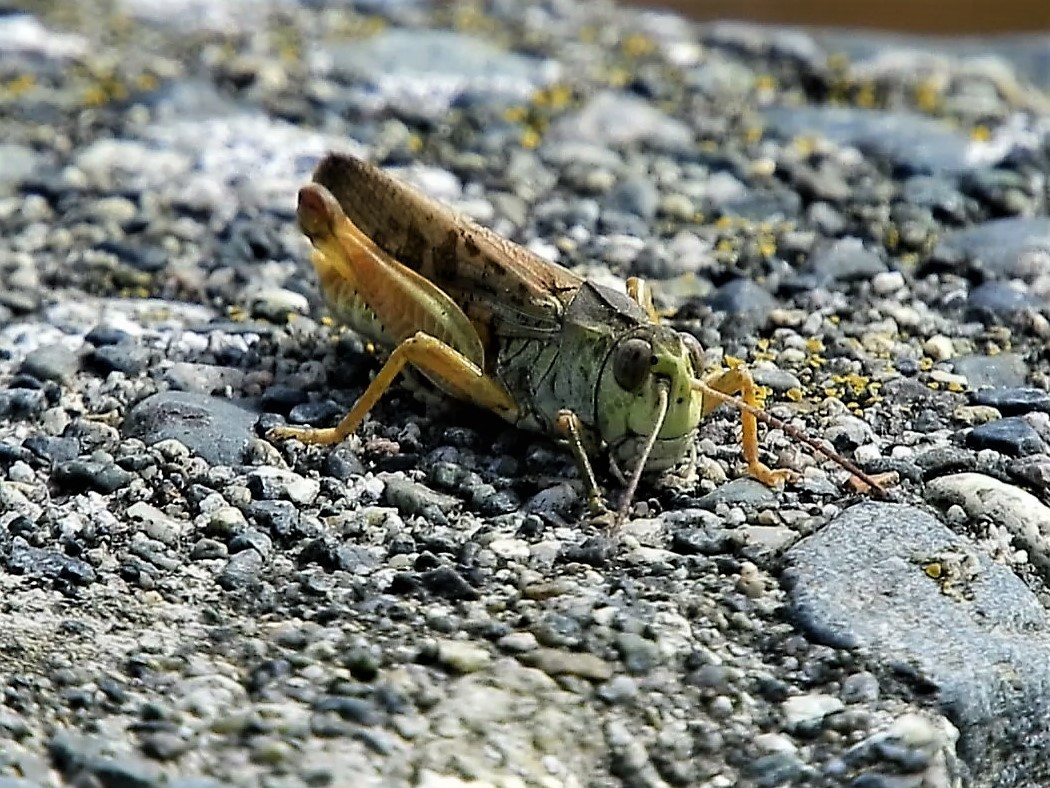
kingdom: Animalia
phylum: Arthropoda
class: Insecta
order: Orthoptera
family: Acrididae
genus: Camnula
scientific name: Camnula pellucida
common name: Clear-winged grasshopper
